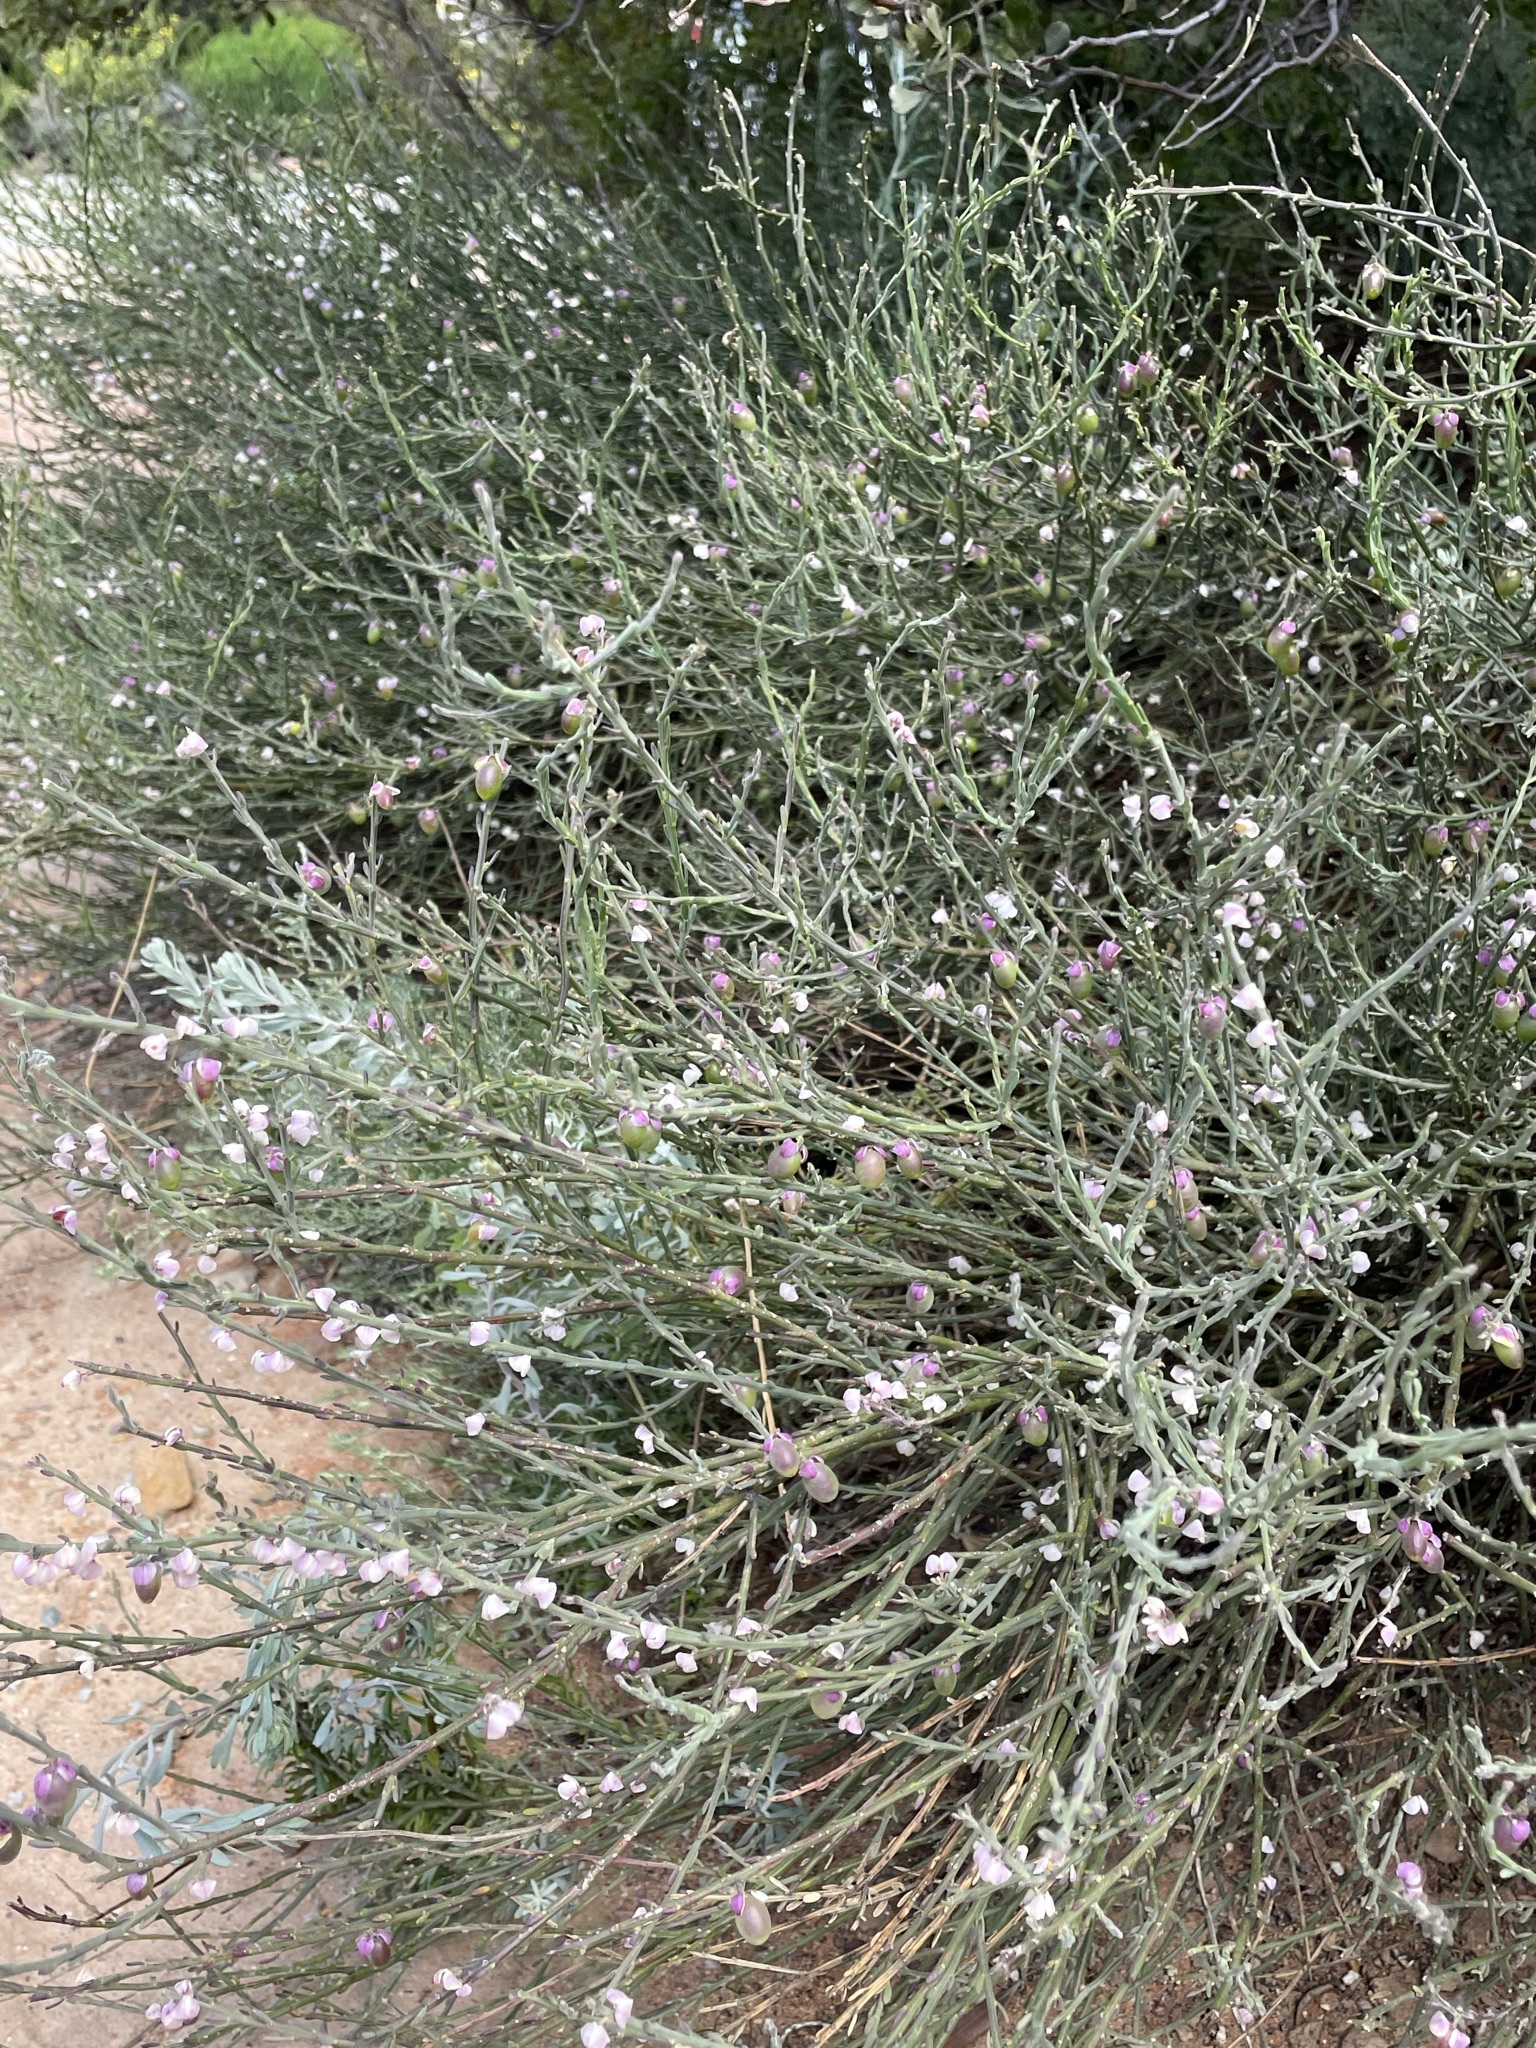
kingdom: Plantae
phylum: Tracheophyta
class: Magnoliopsida
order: Fabales
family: Polygalaceae
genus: Muraltia
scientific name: Muraltia spinosa
